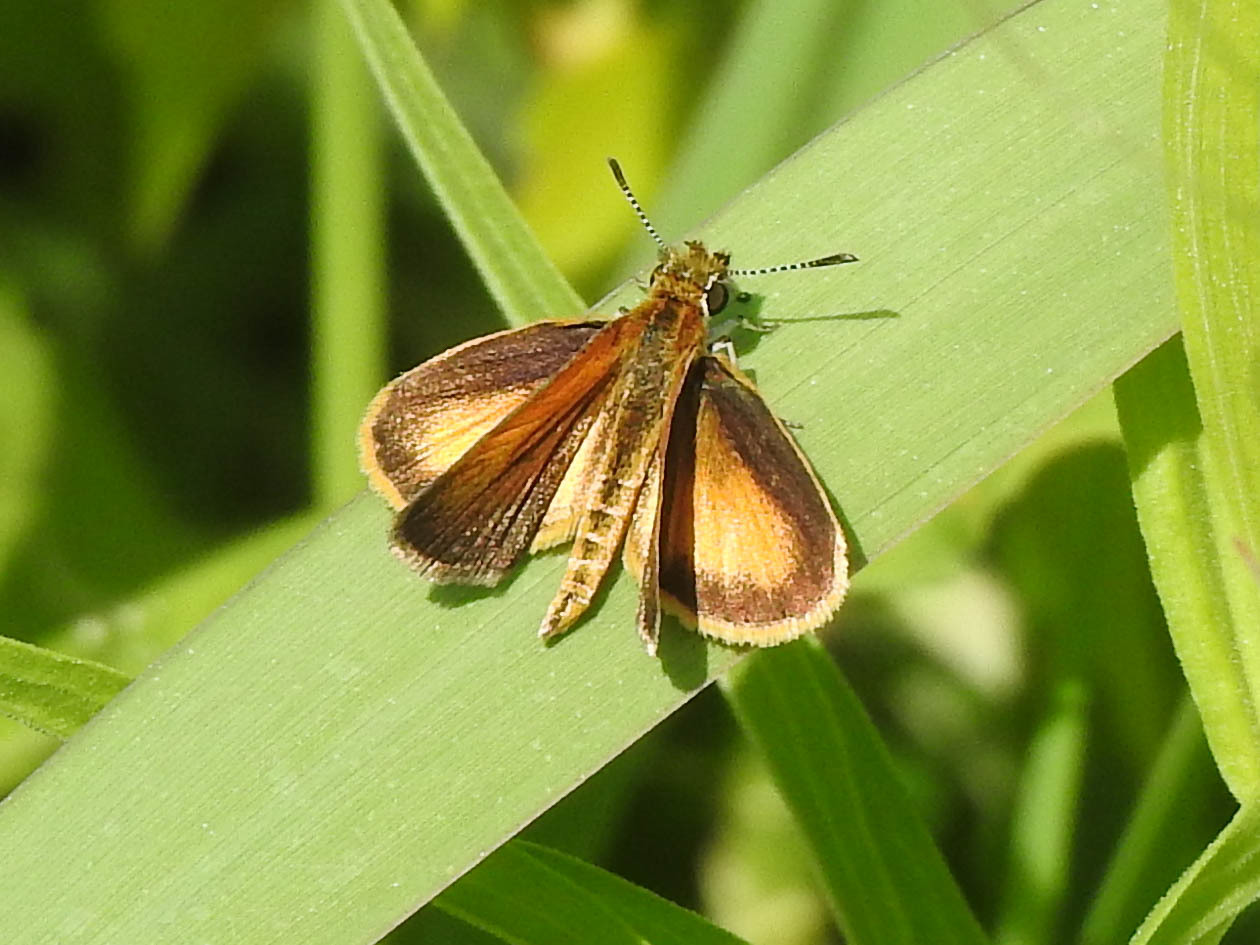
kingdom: Animalia
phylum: Arthropoda
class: Insecta
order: Lepidoptera
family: Hesperiidae
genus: Ancyloxypha
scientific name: Ancyloxypha numitor
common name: Least skipper
